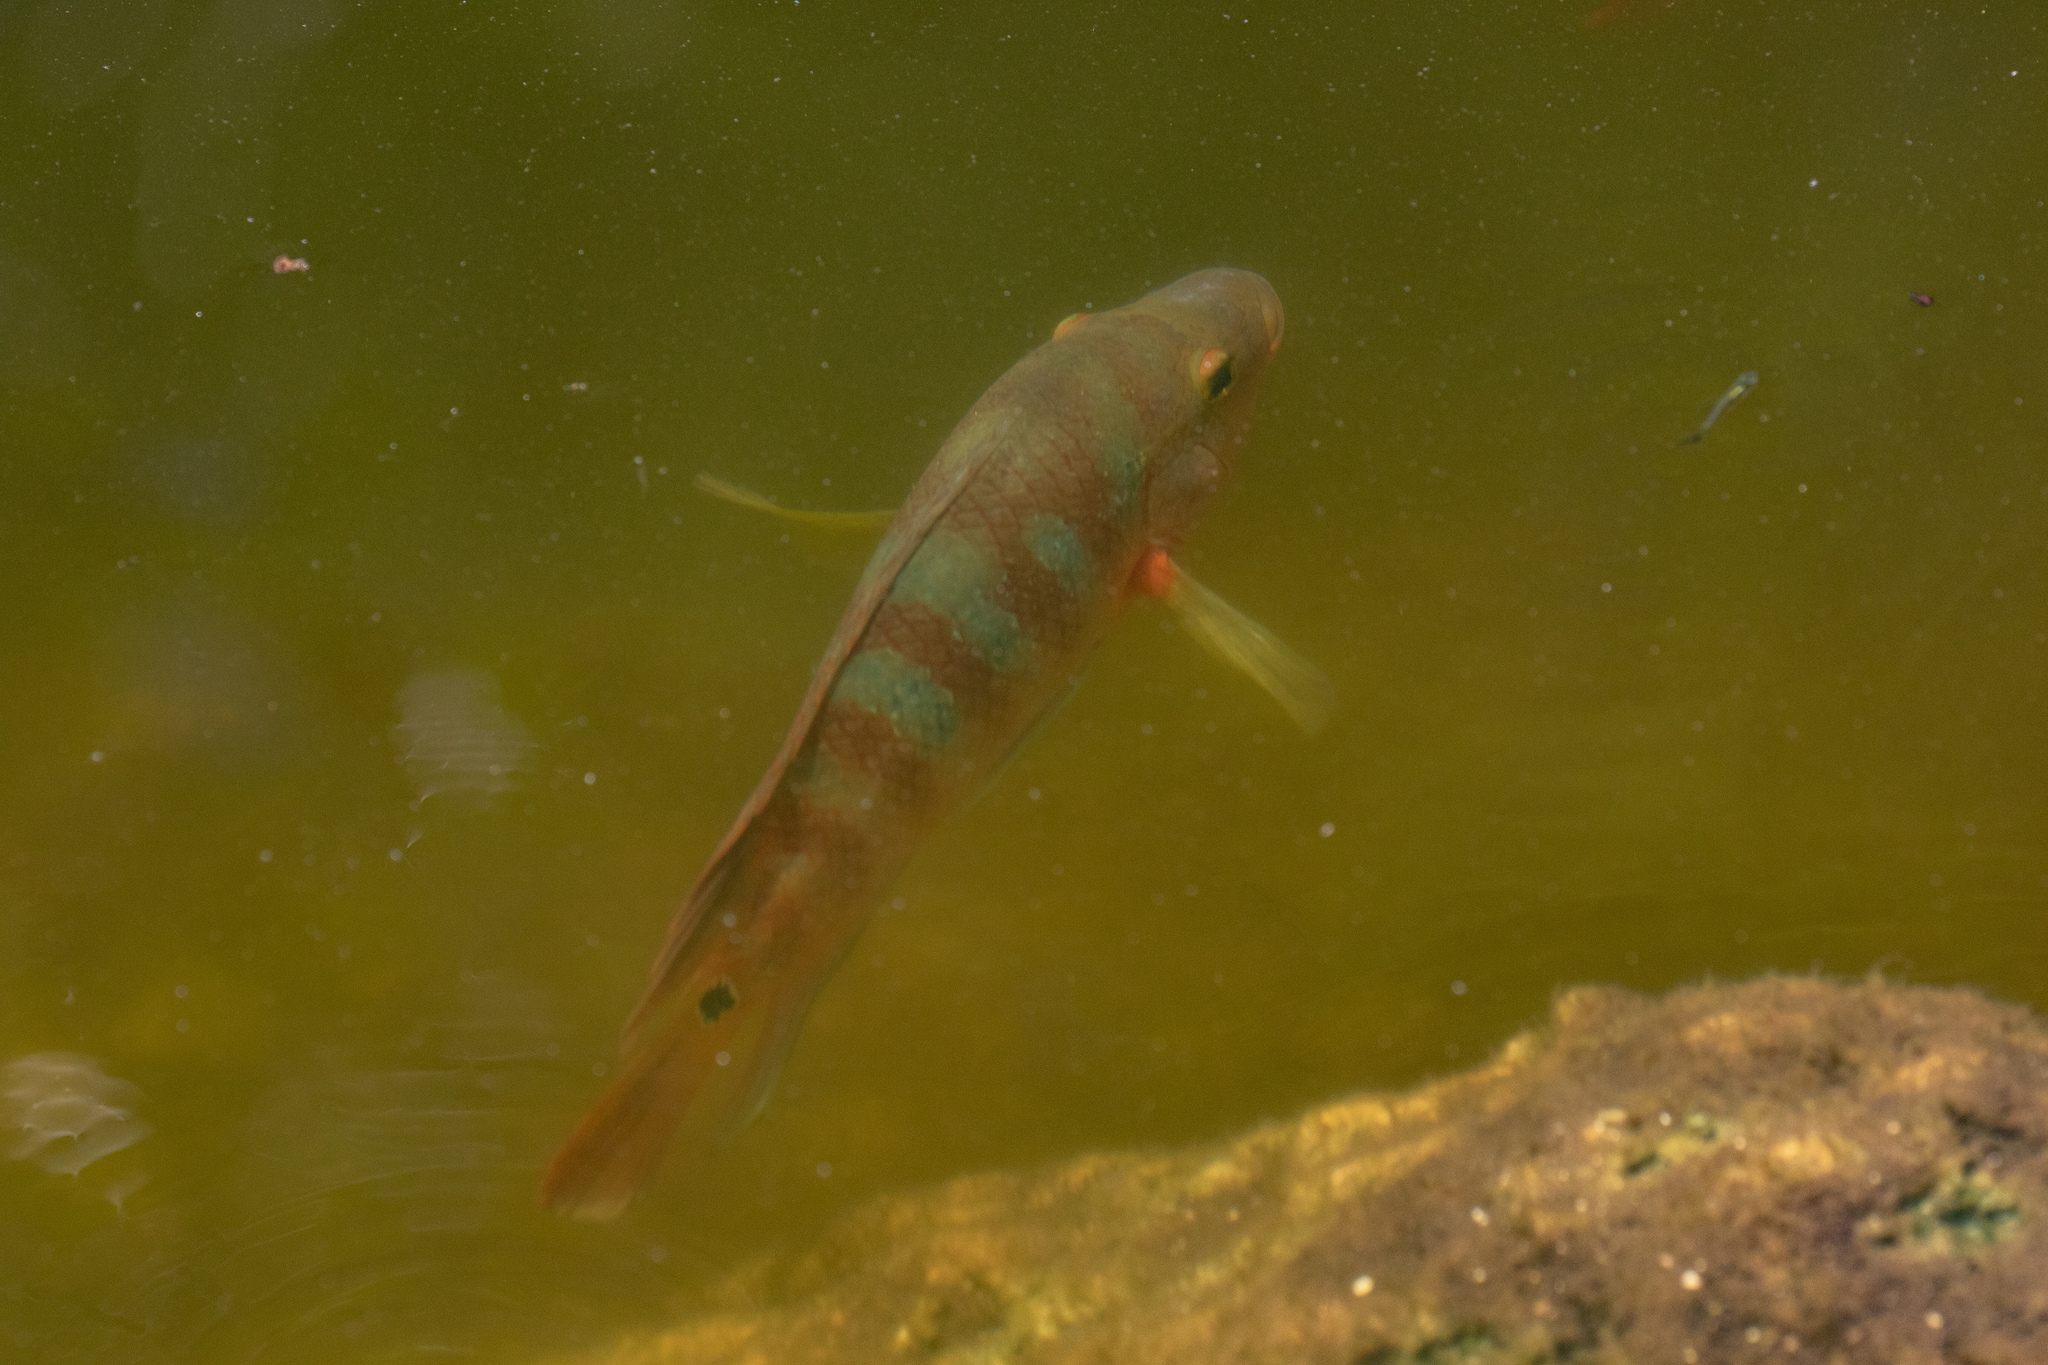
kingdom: Animalia
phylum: Chordata
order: Perciformes
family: Cichlidae
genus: Mayaheros
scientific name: Mayaheros urophthalmus
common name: Mayan cichlid
